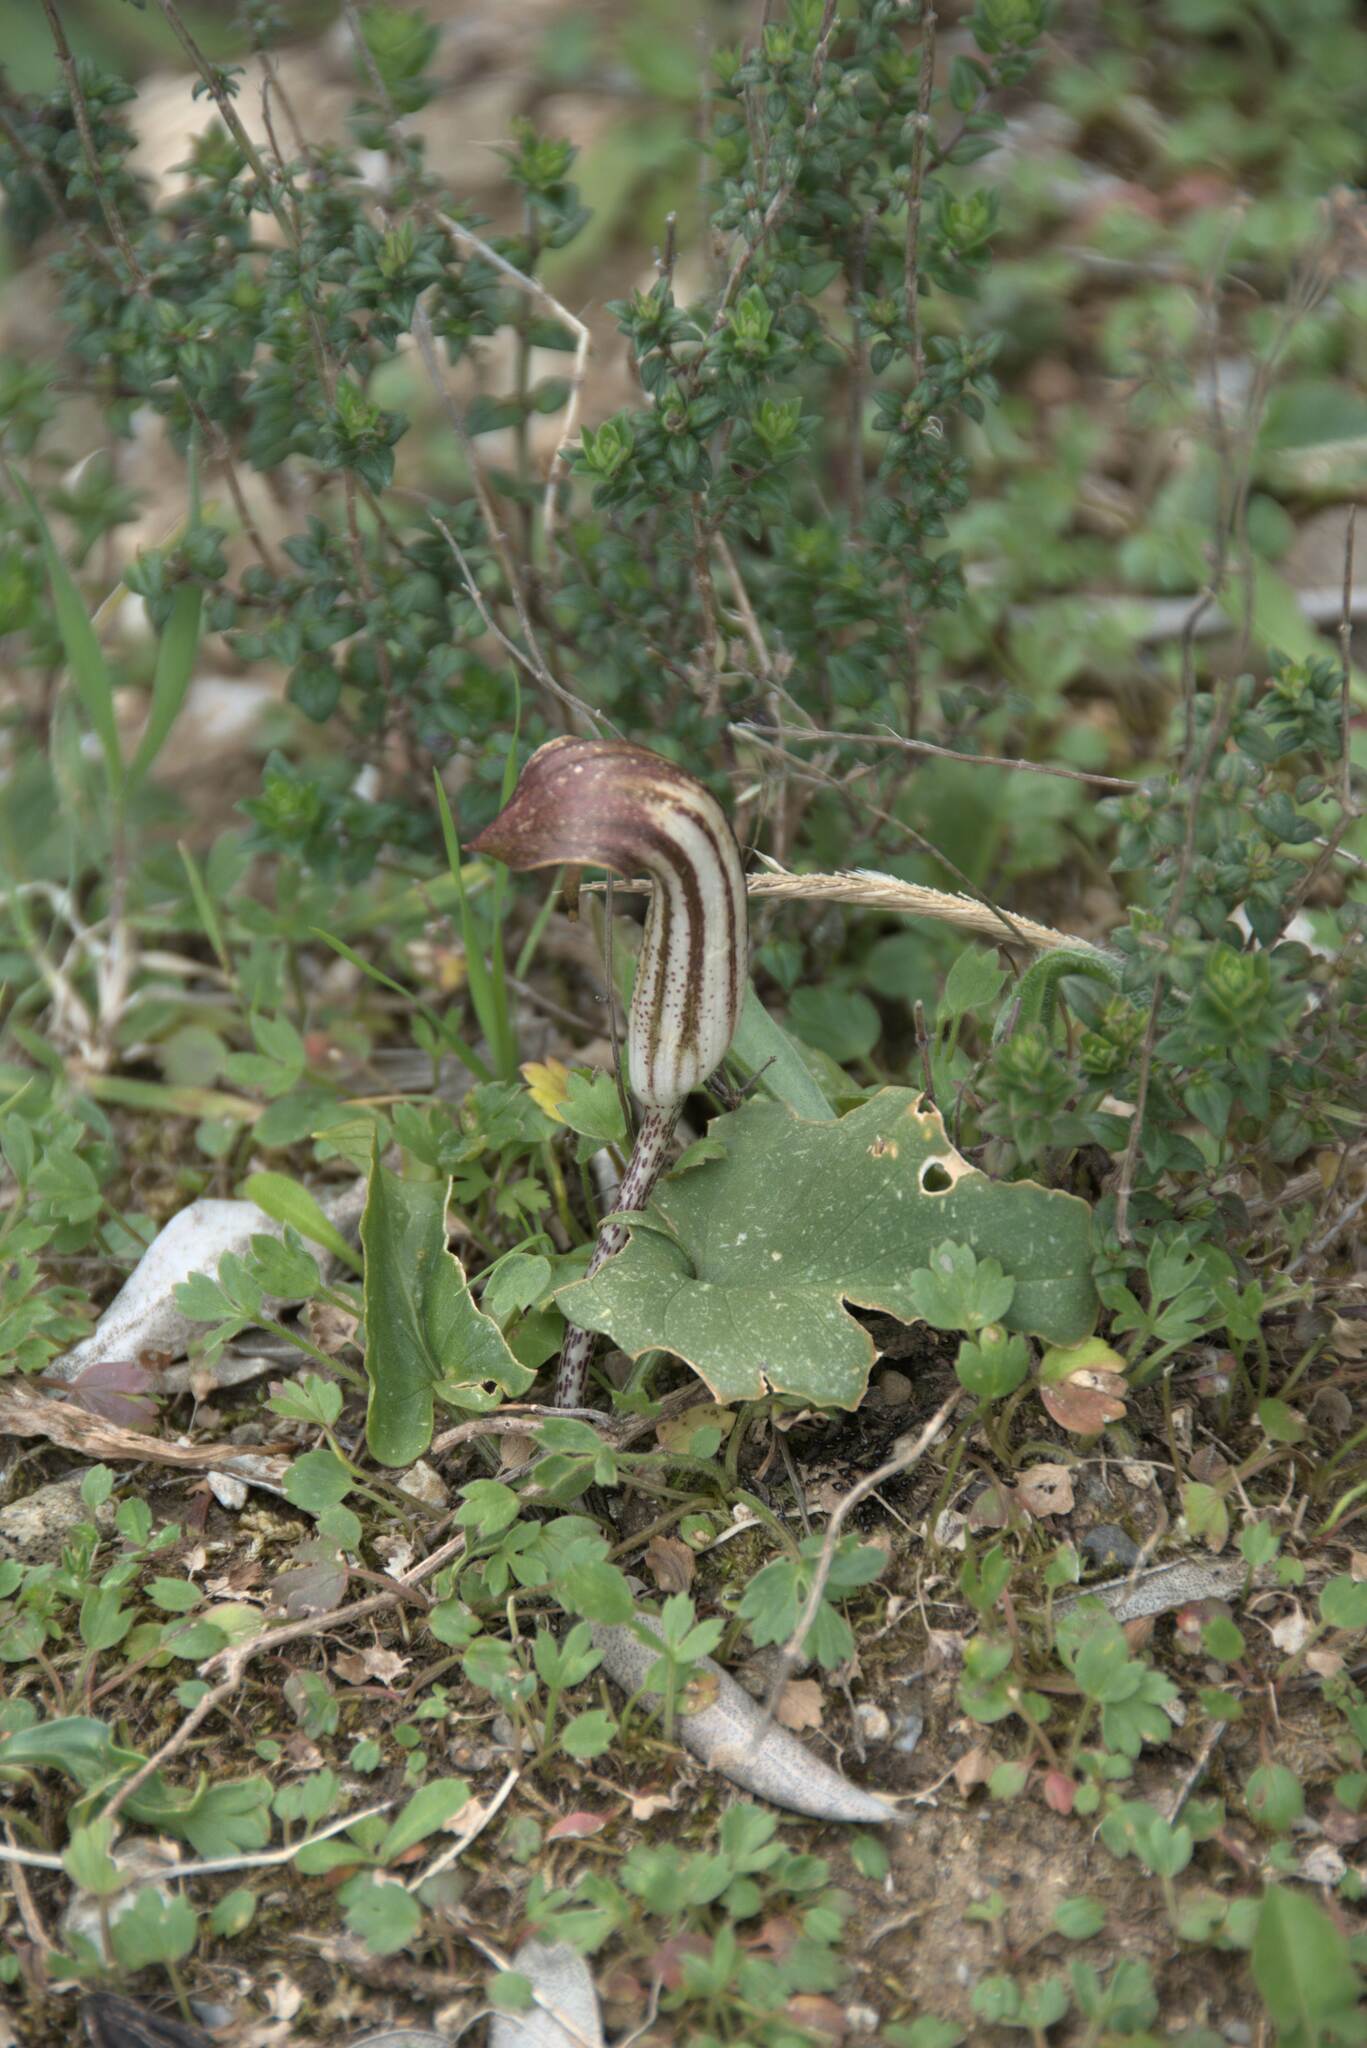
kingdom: Plantae
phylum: Tracheophyta
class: Liliopsida
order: Alismatales
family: Araceae
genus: Arisarum
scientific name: Arisarum vulgare
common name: Common arisarum
